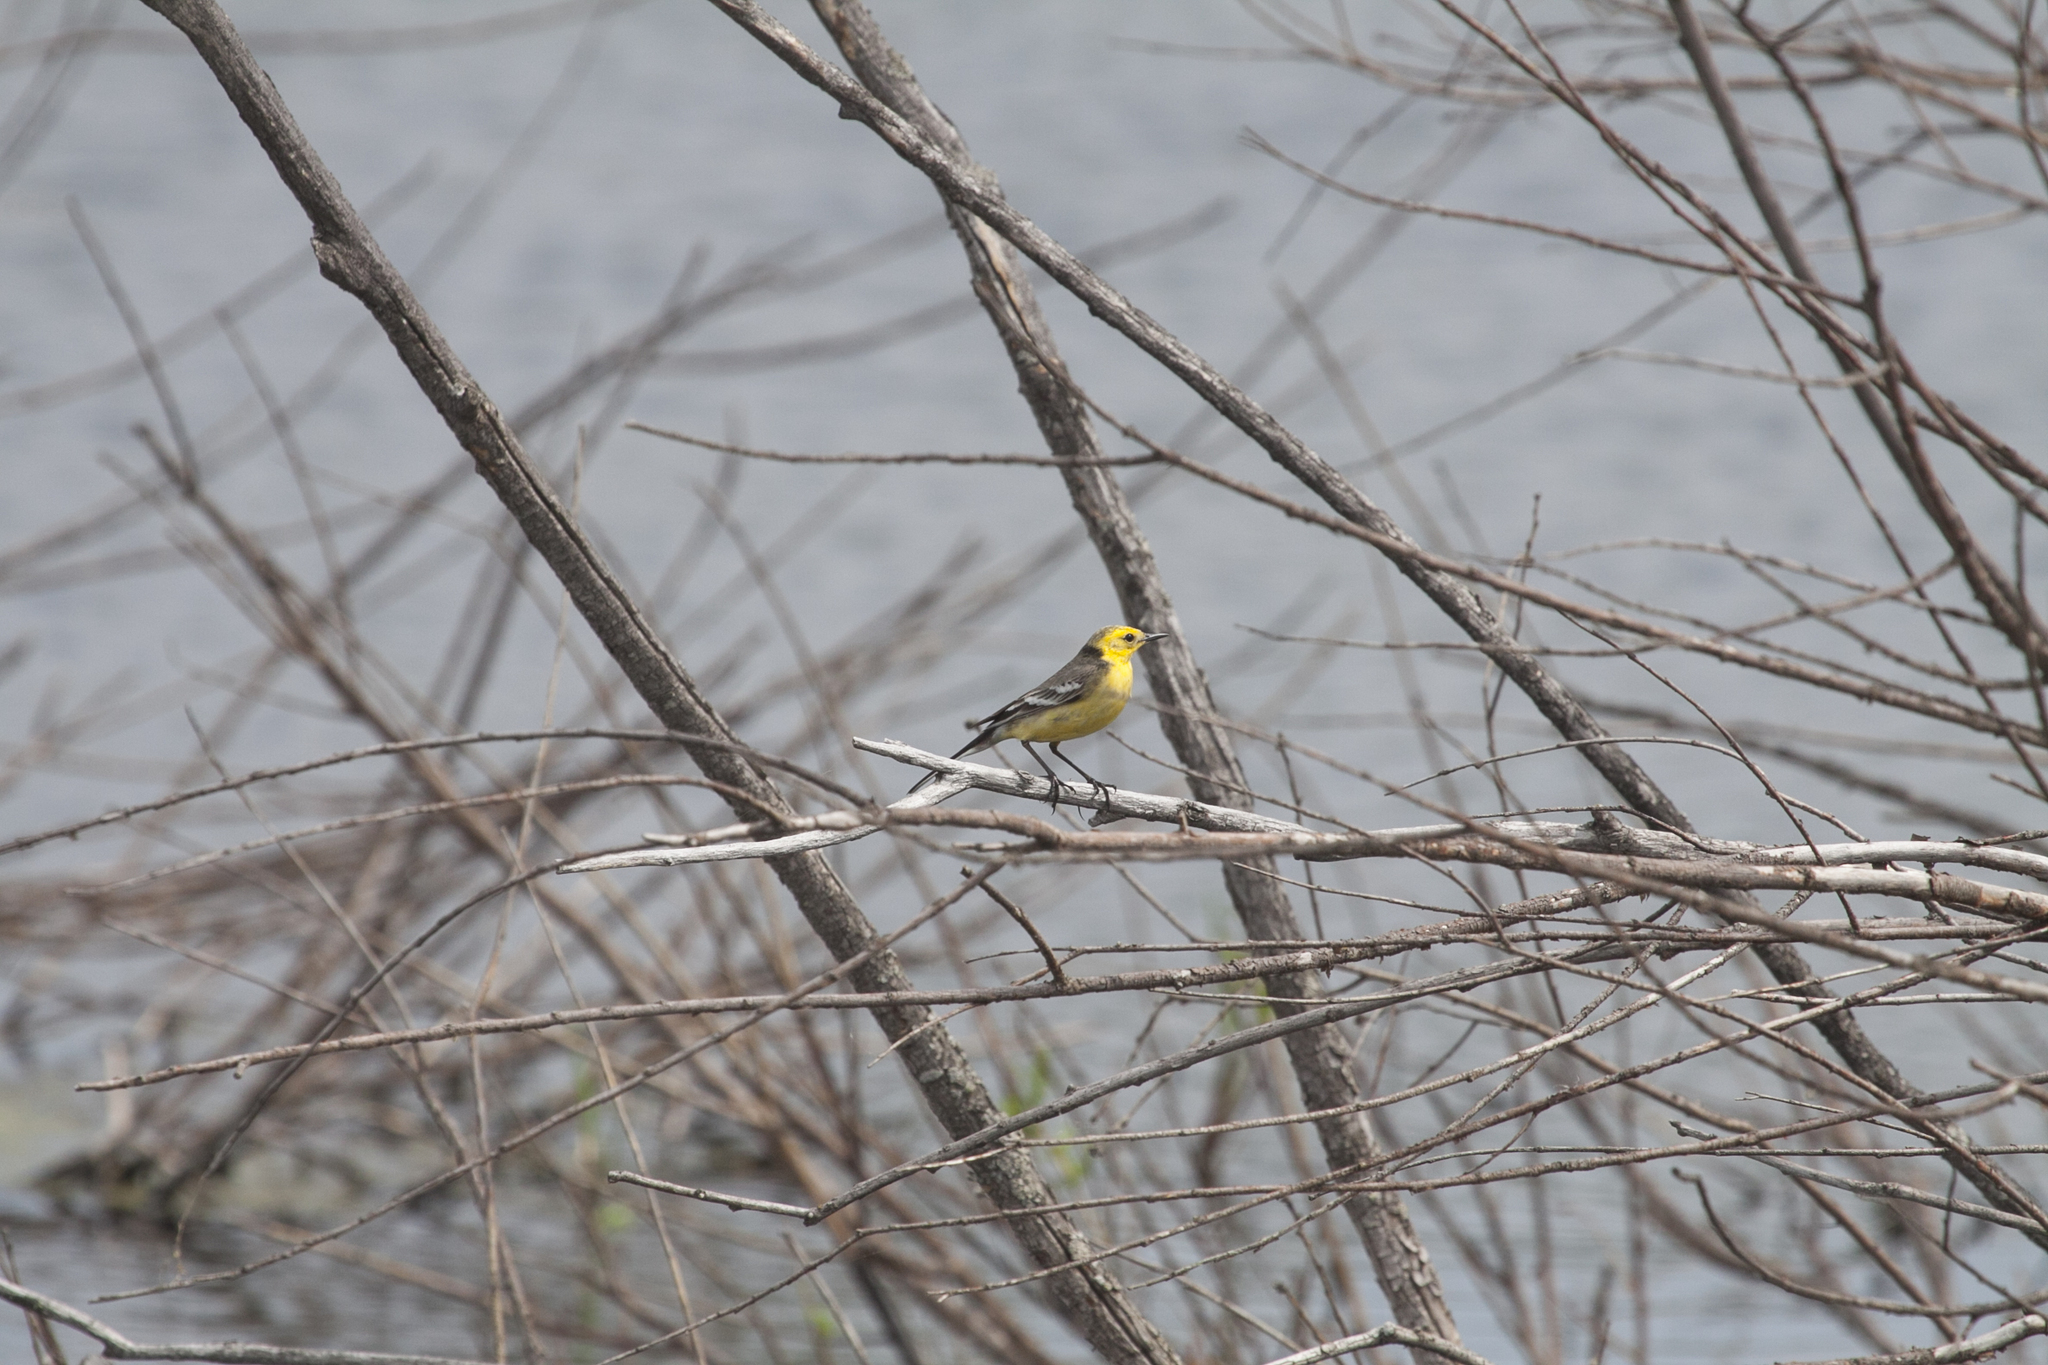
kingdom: Animalia
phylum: Chordata
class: Aves
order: Passeriformes
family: Motacillidae
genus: Motacilla
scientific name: Motacilla citreola
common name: Citrine wagtail
